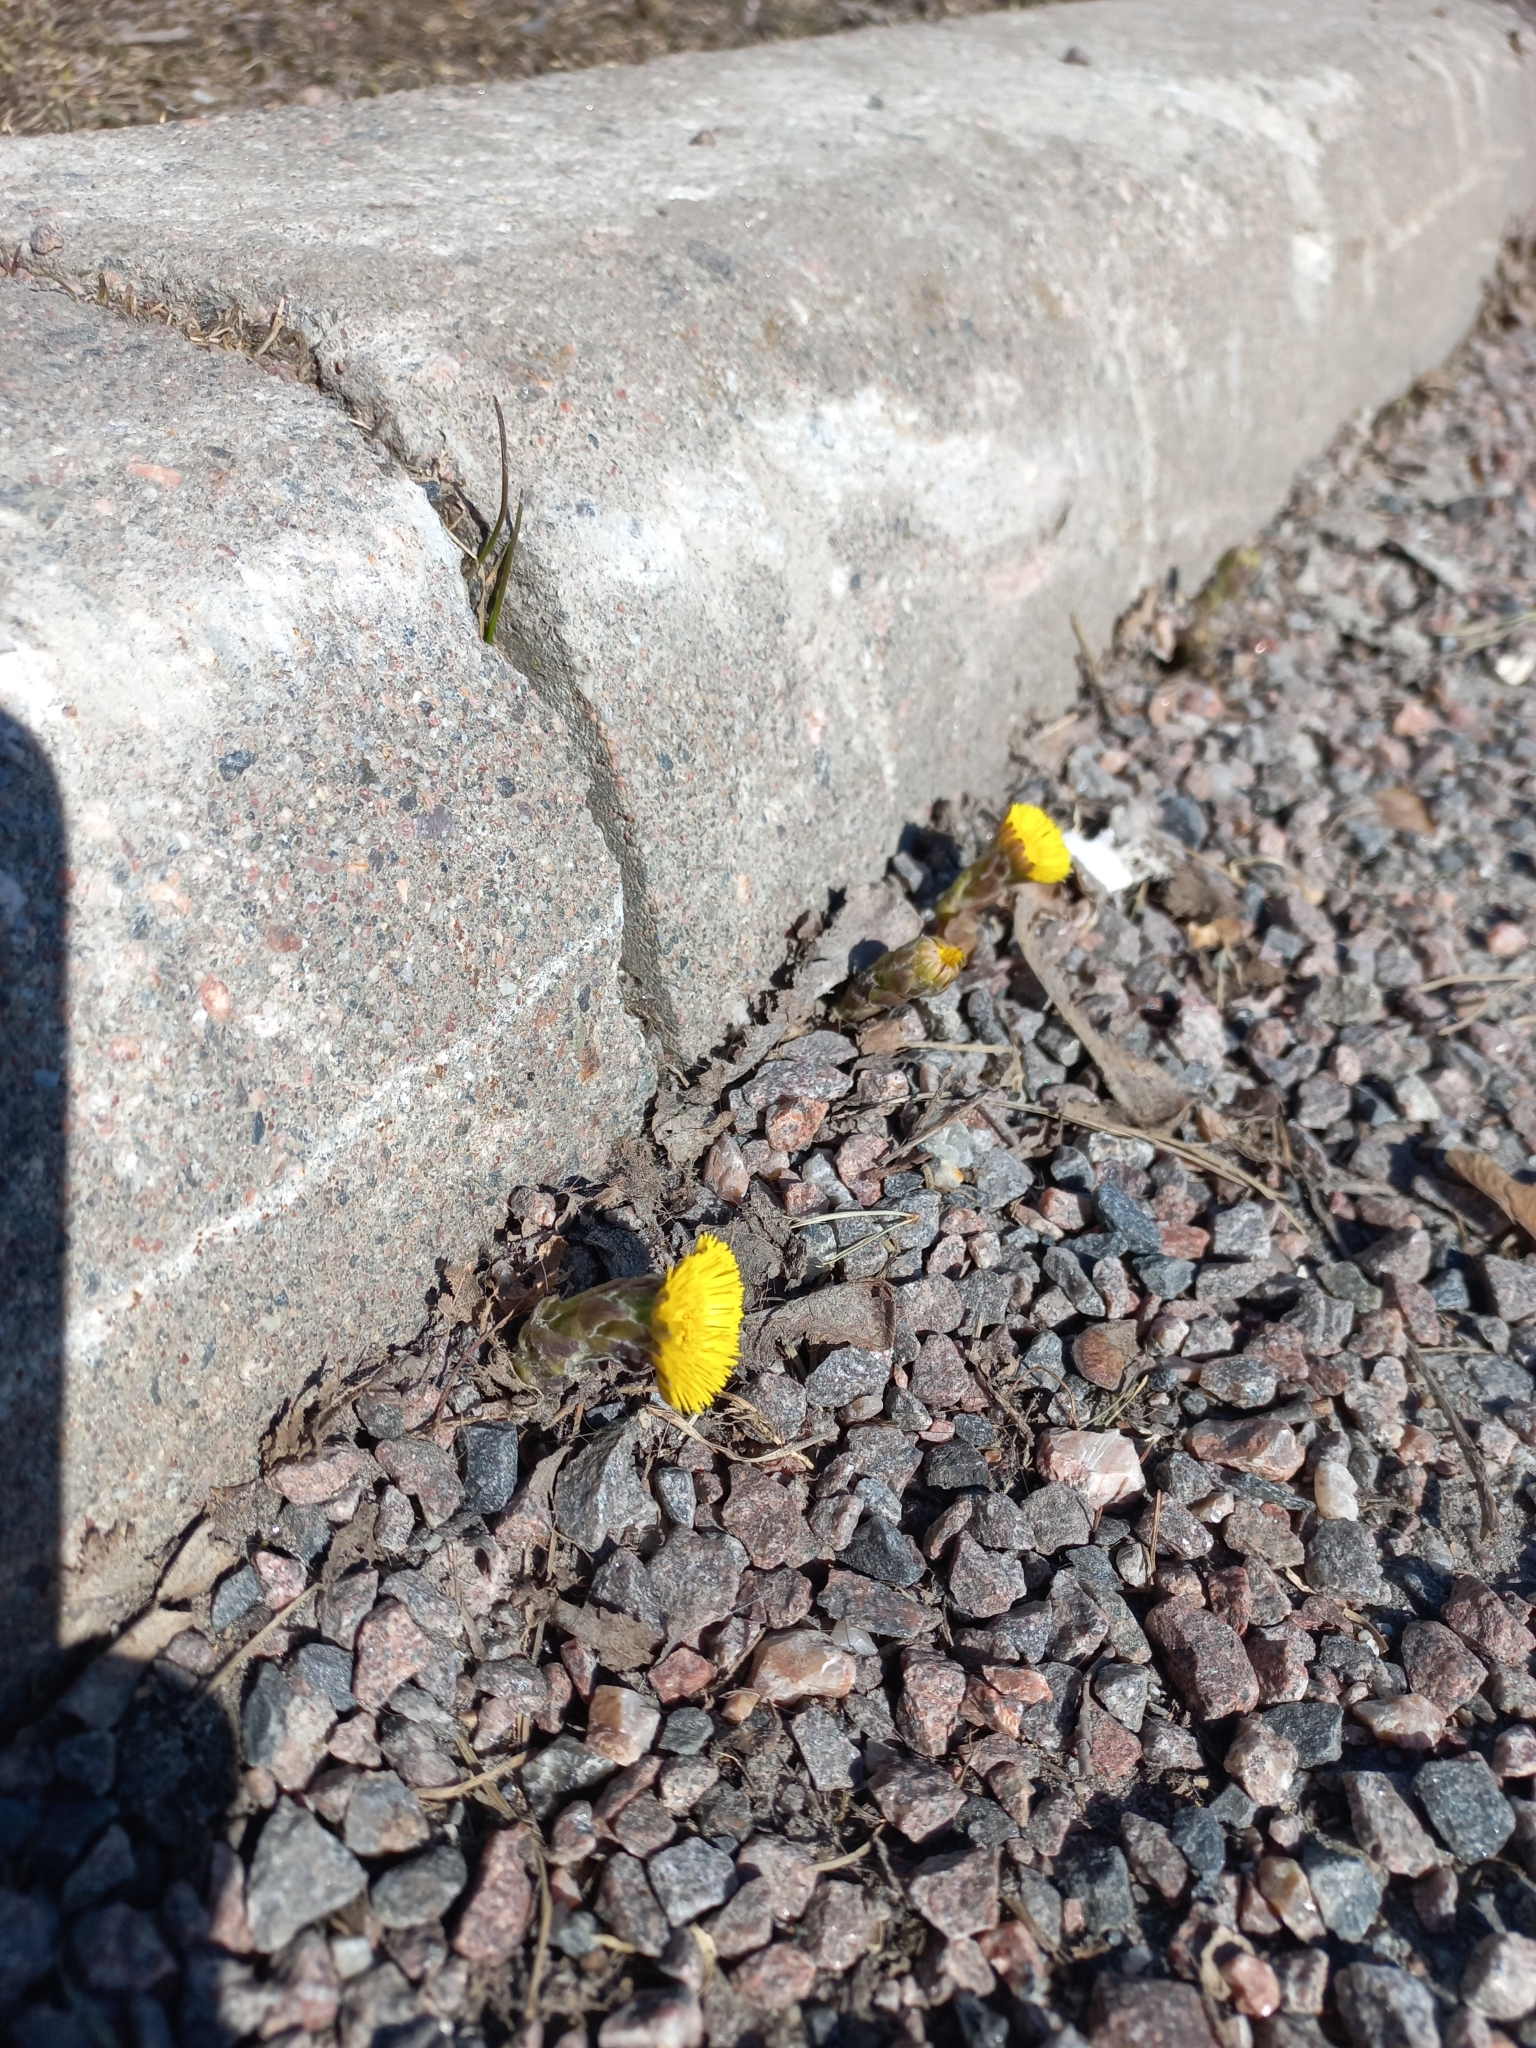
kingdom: Plantae
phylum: Tracheophyta
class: Magnoliopsida
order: Asterales
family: Asteraceae
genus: Tussilago
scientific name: Tussilago farfara
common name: Coltsfoot
